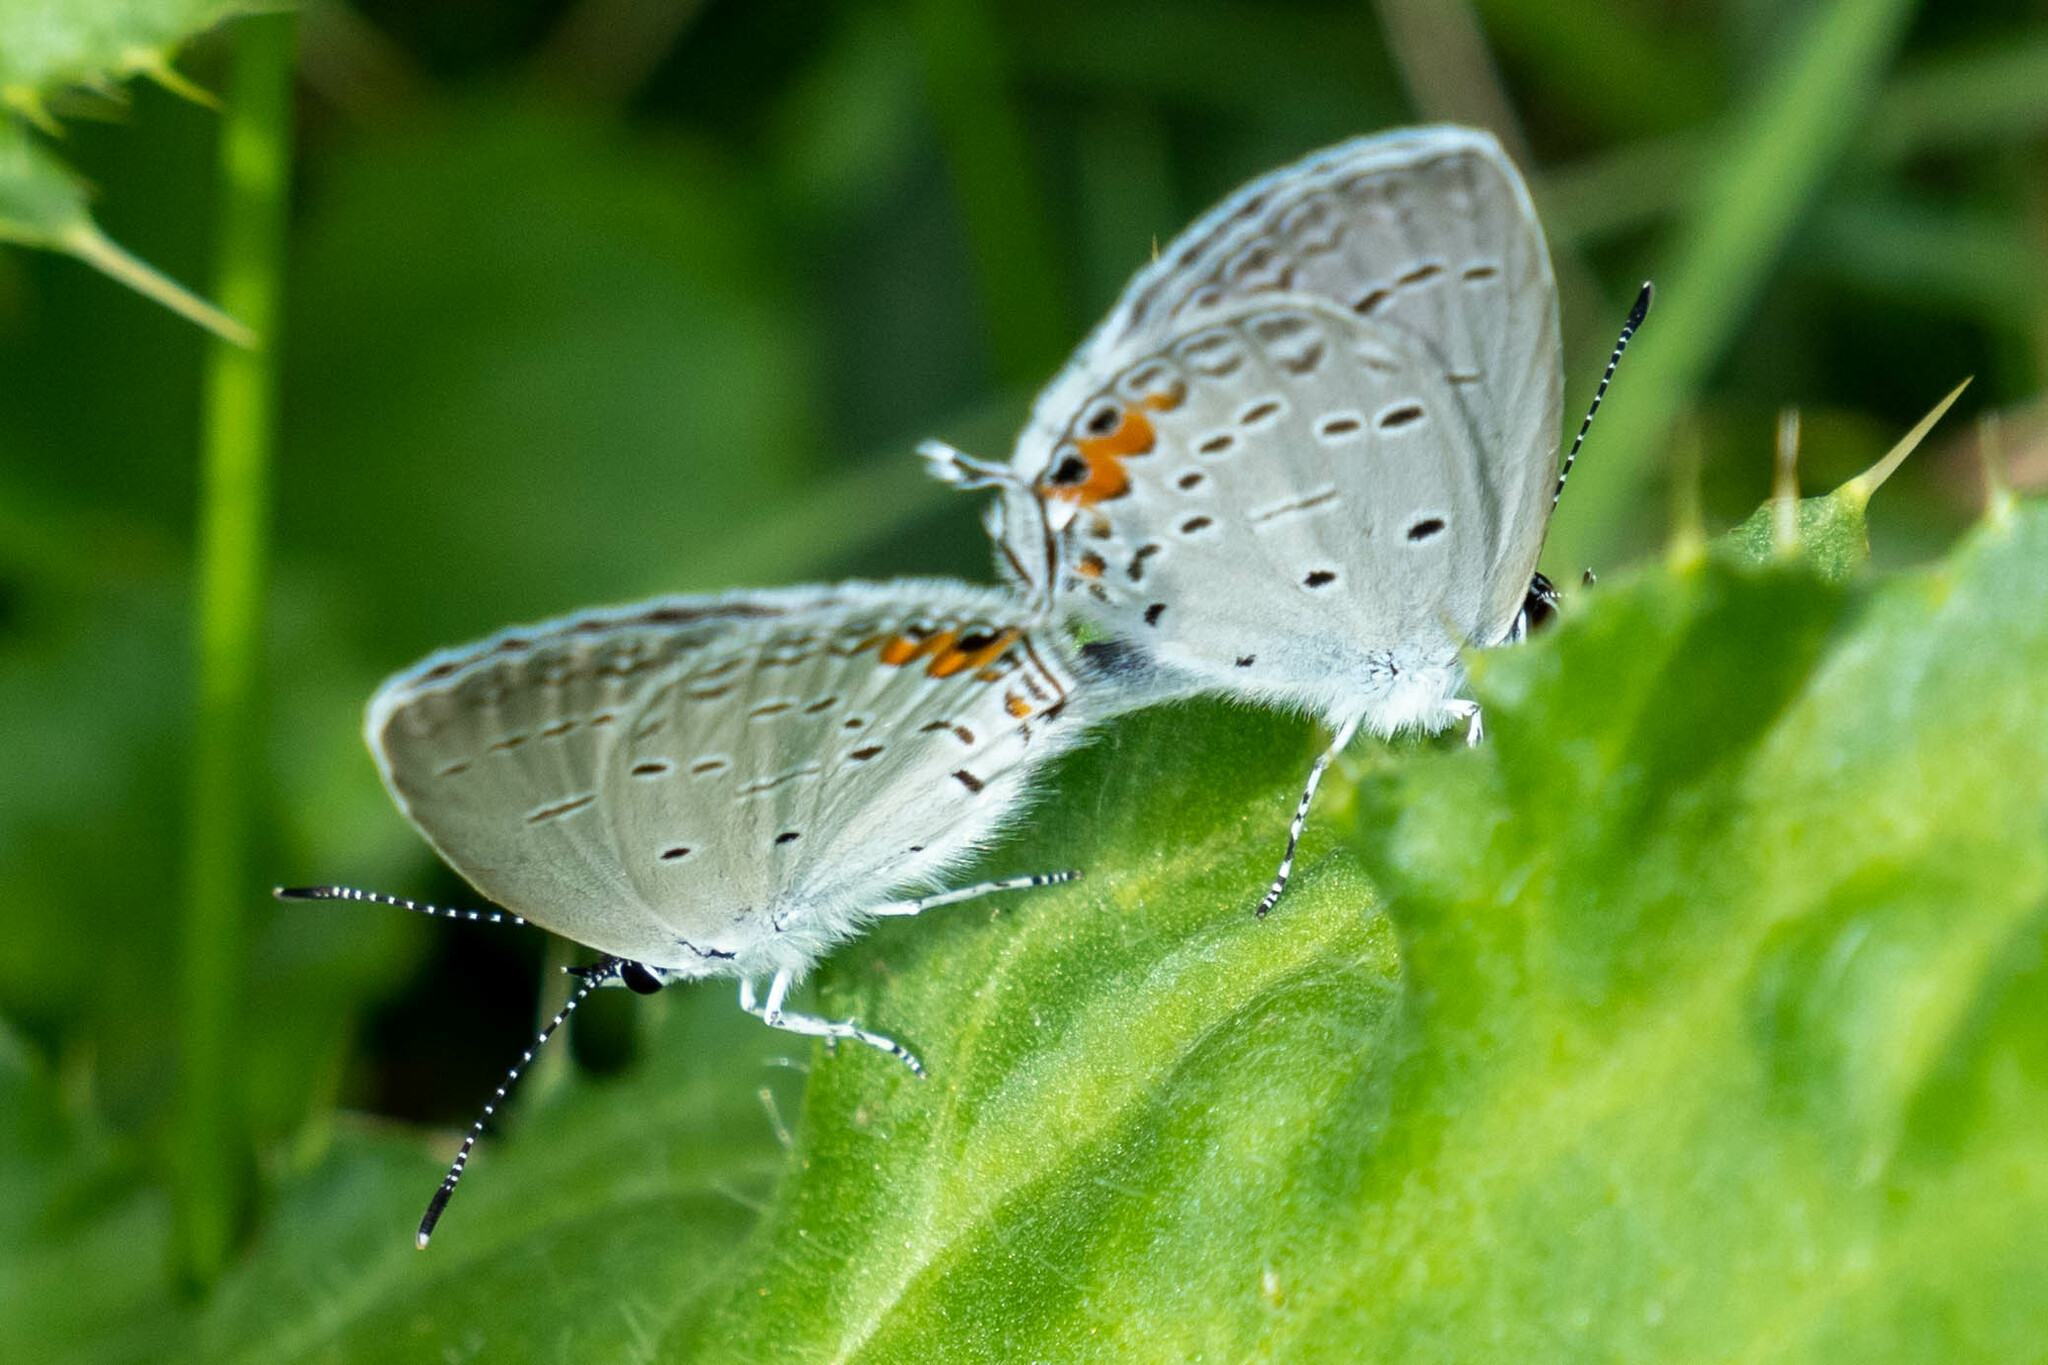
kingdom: Animalia
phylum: Arthropoda
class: Insecta
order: Lepidoptera
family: Lycaenidae
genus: Elkalyce
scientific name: Elkalyce comyntas
